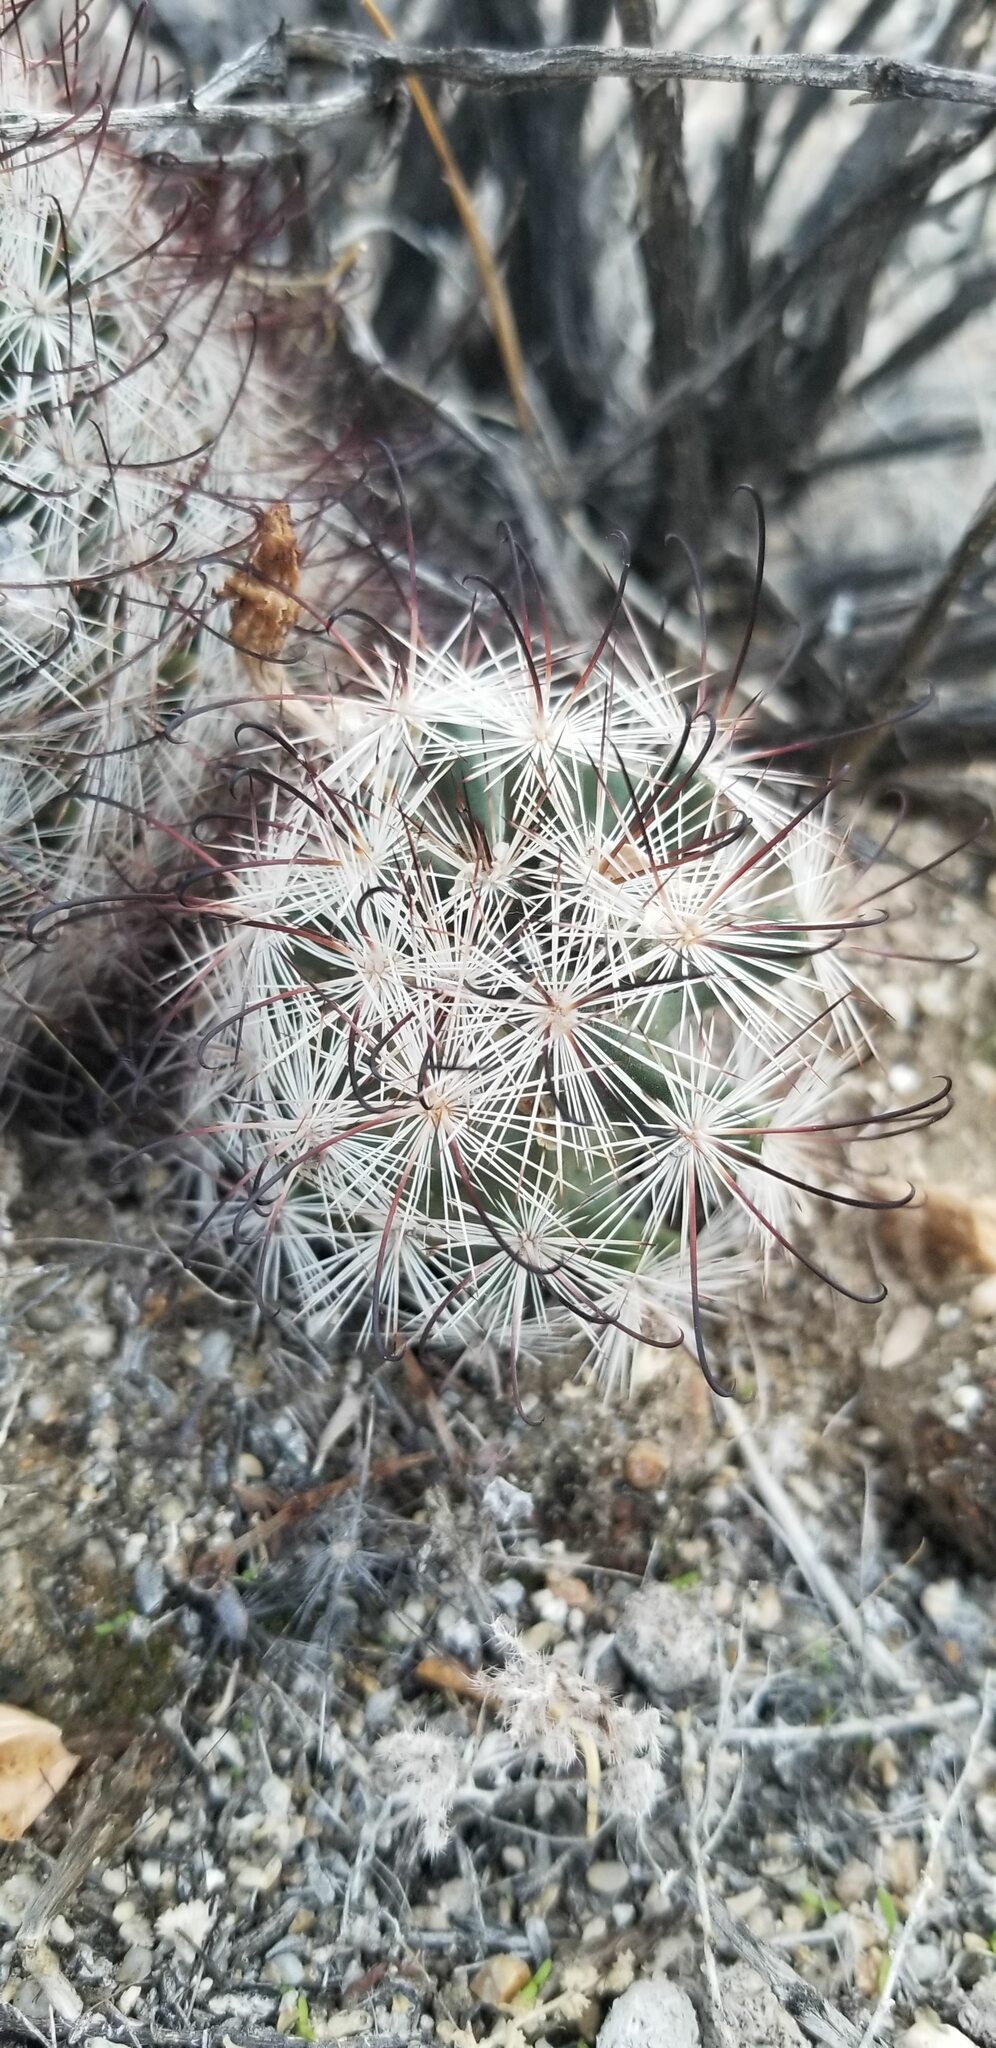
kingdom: Plantae
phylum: Tracheophyta
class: Magnoliopsida
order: Caryophyllales
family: Cactaceae
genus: Cochemiea
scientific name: Cochemiea tetrancistra
